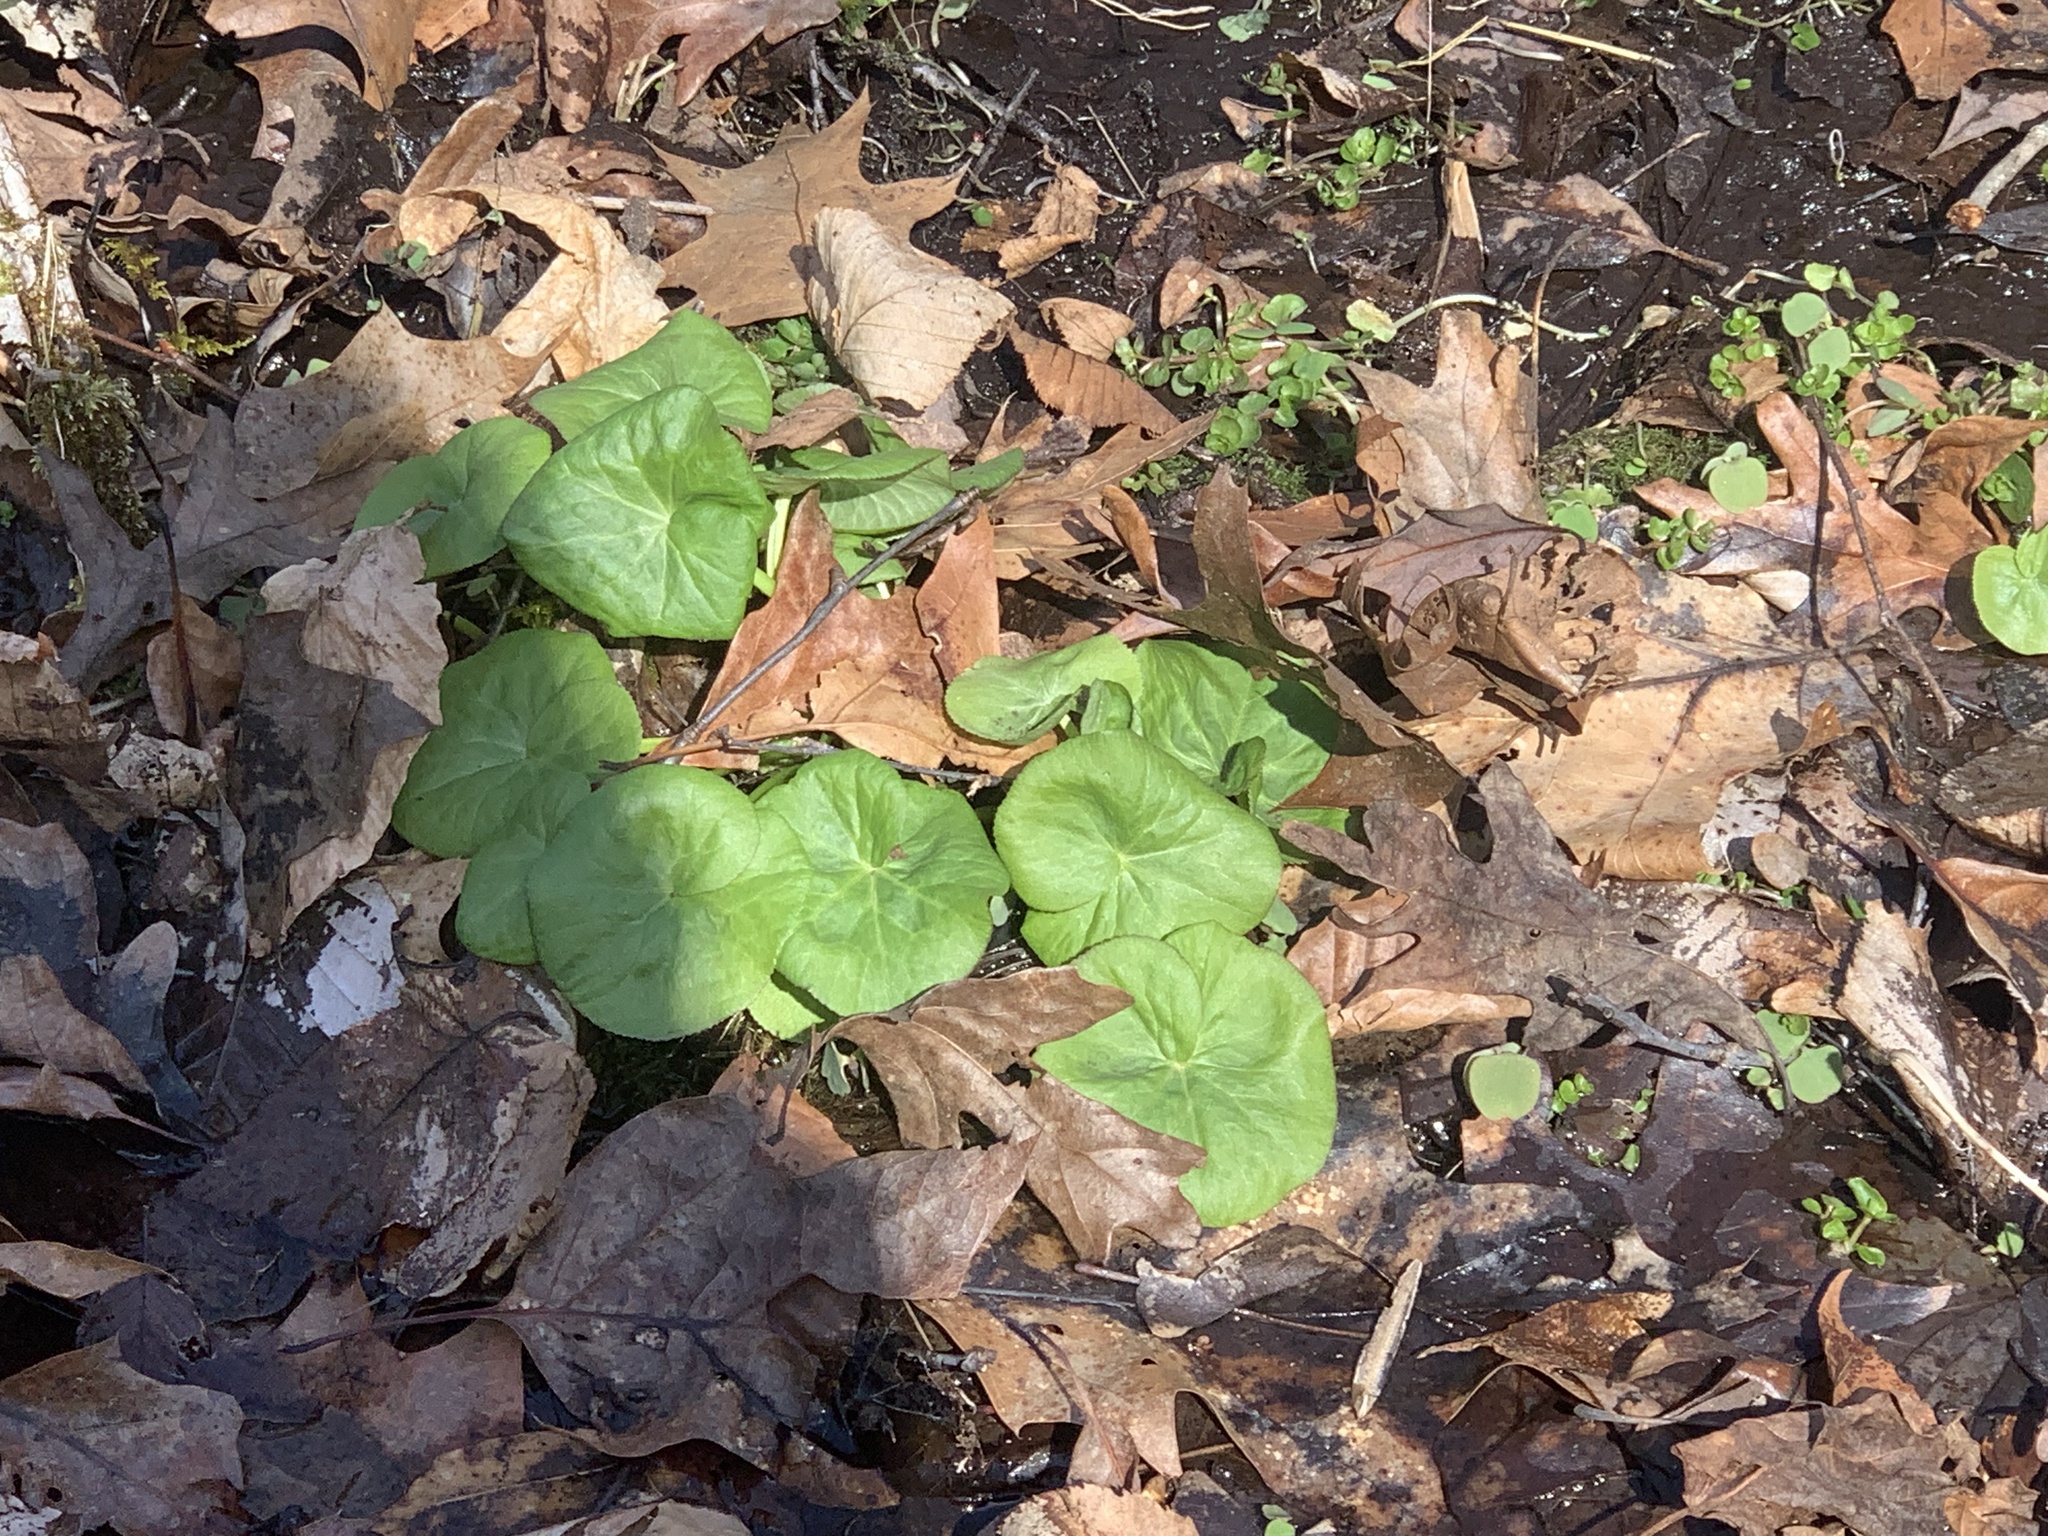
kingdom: Plantae
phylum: Tracheophyta
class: Magnoliopsida
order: Ranunculales
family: Ranunculaceae
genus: Caltha
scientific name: Caltha palustris
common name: Marsh marigold
